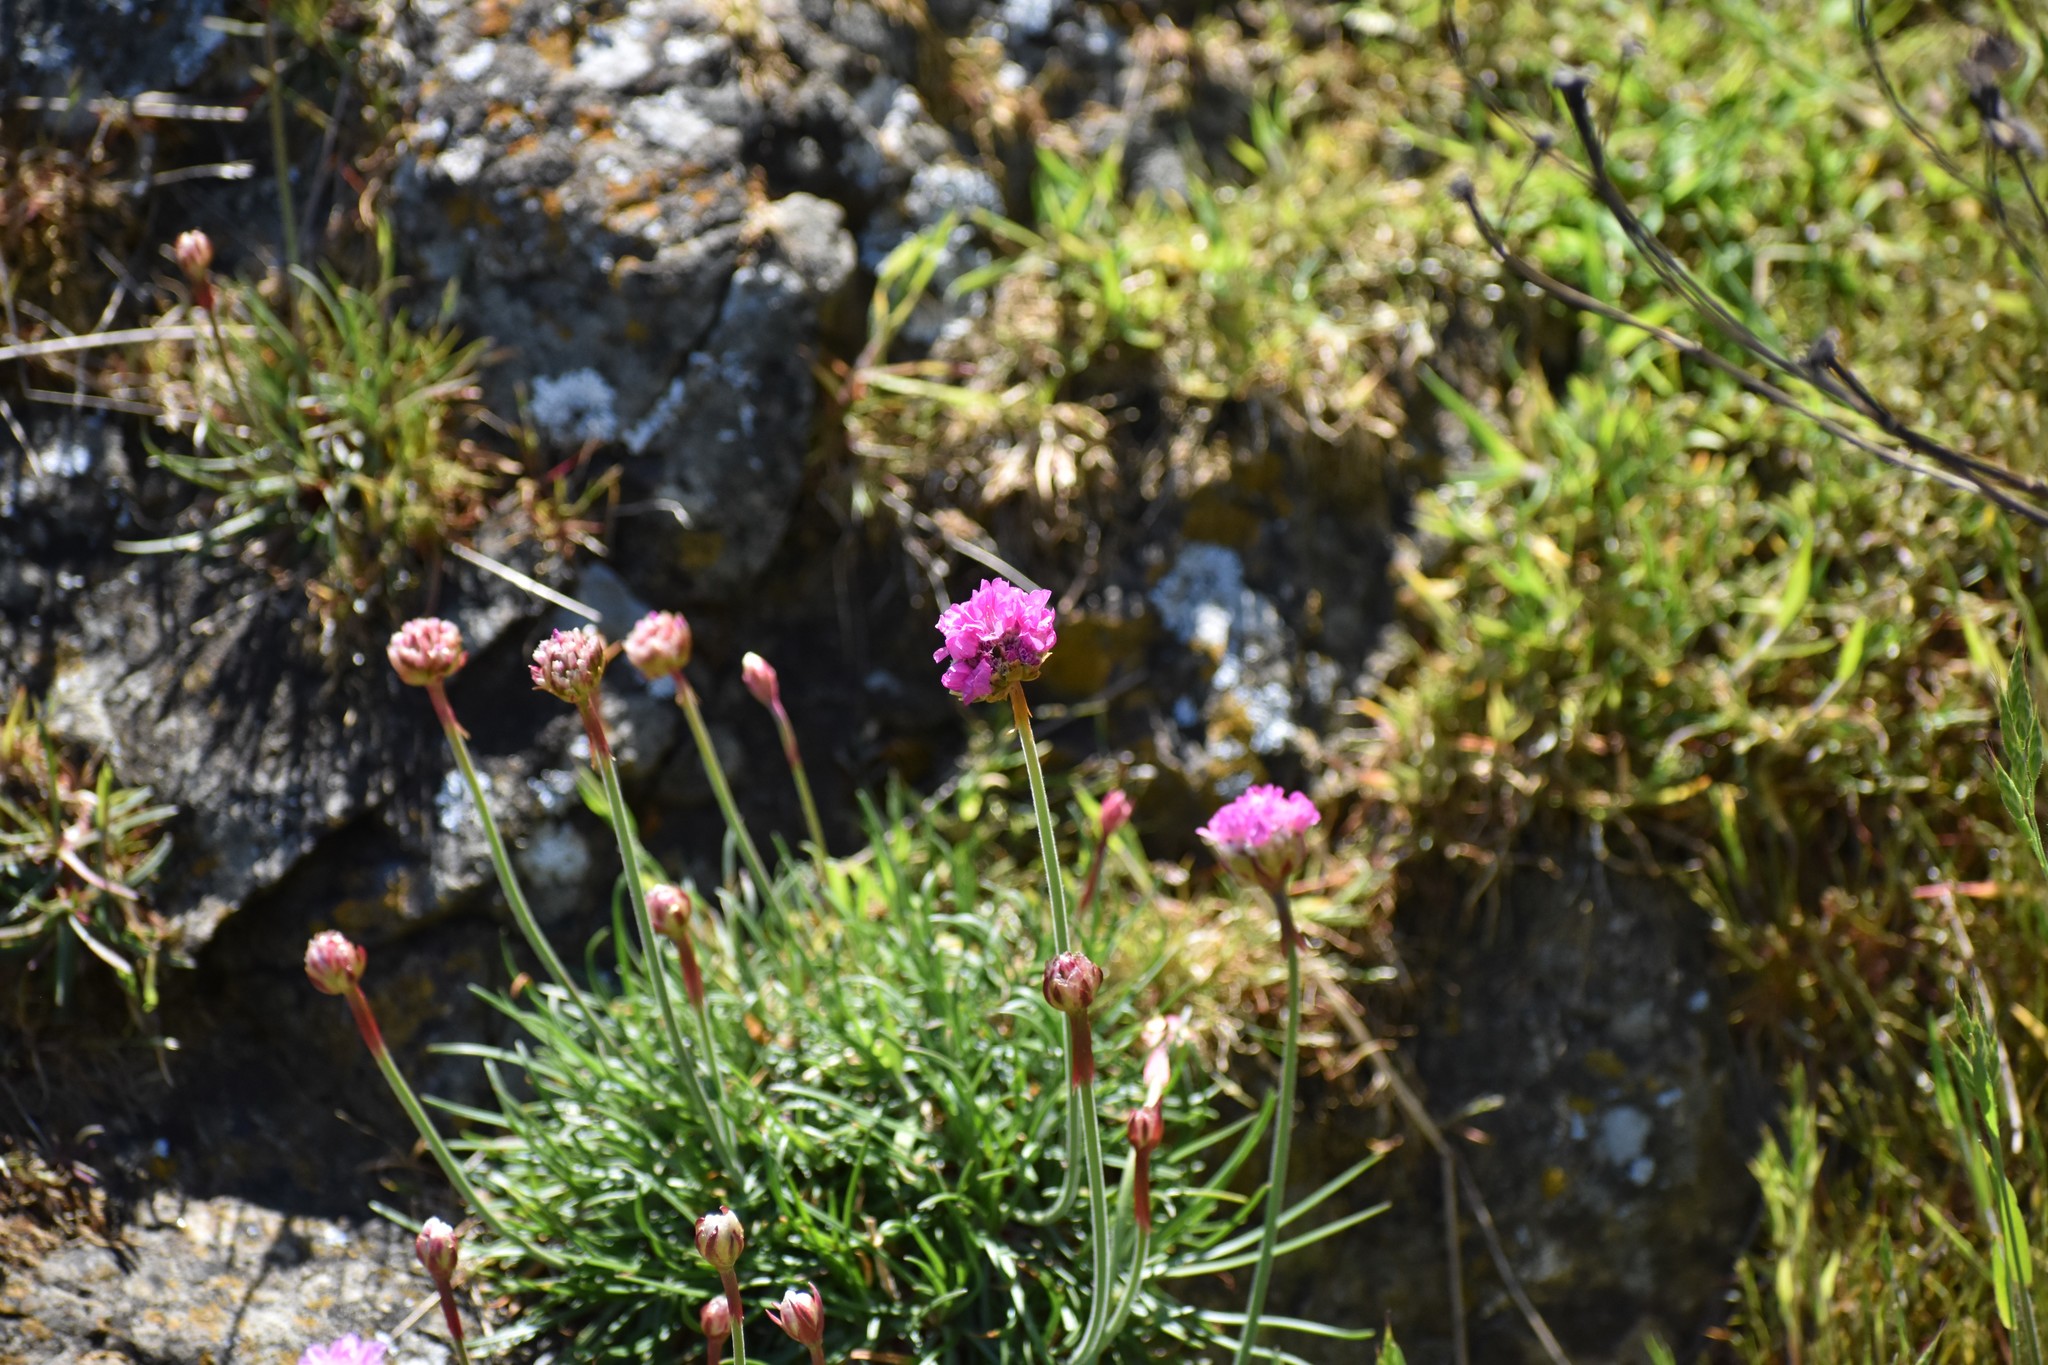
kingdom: Plantae
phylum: Tracheophyta
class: Magnoliopsida
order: Caryophyllales
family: Plumbaginaceae
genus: Armeria
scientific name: Armeria maritima
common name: Thrift
